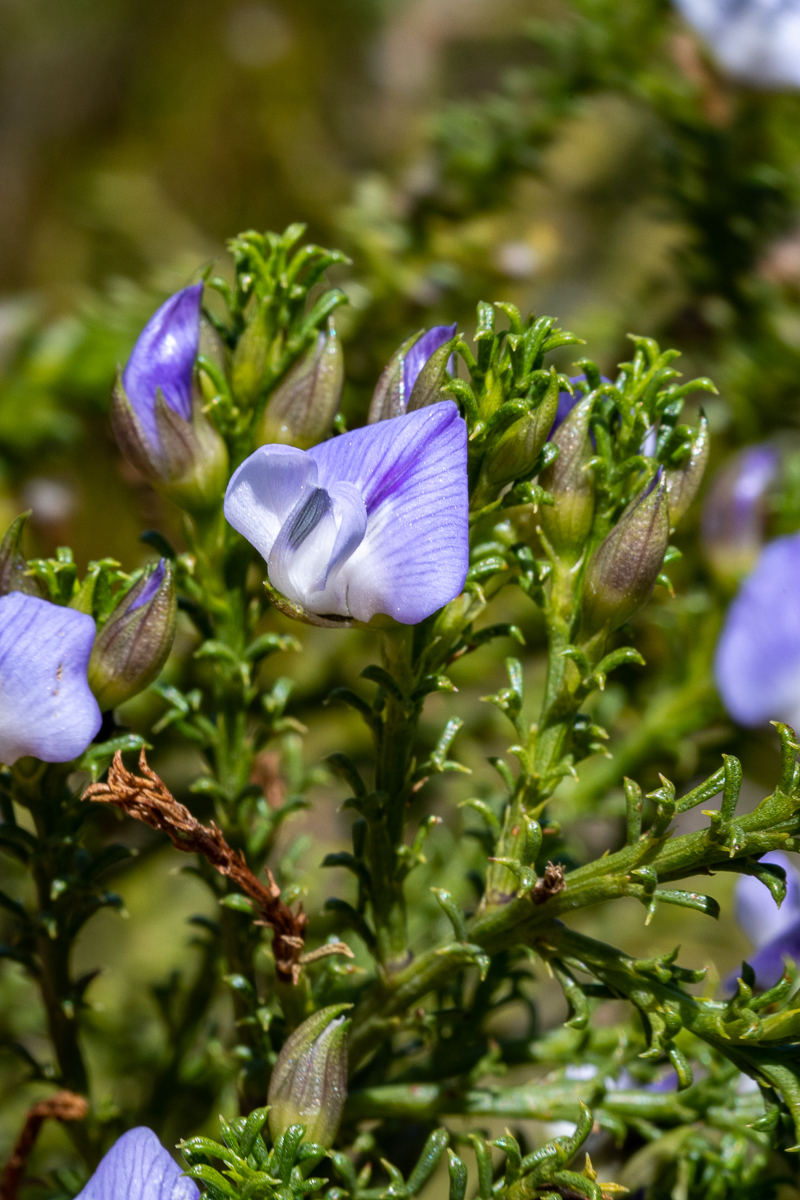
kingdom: Plantae
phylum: Tracheophyta
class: Magnoliopsida
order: Fabales
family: Fabaceae
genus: Psoralea
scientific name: Psoralea aculeata
